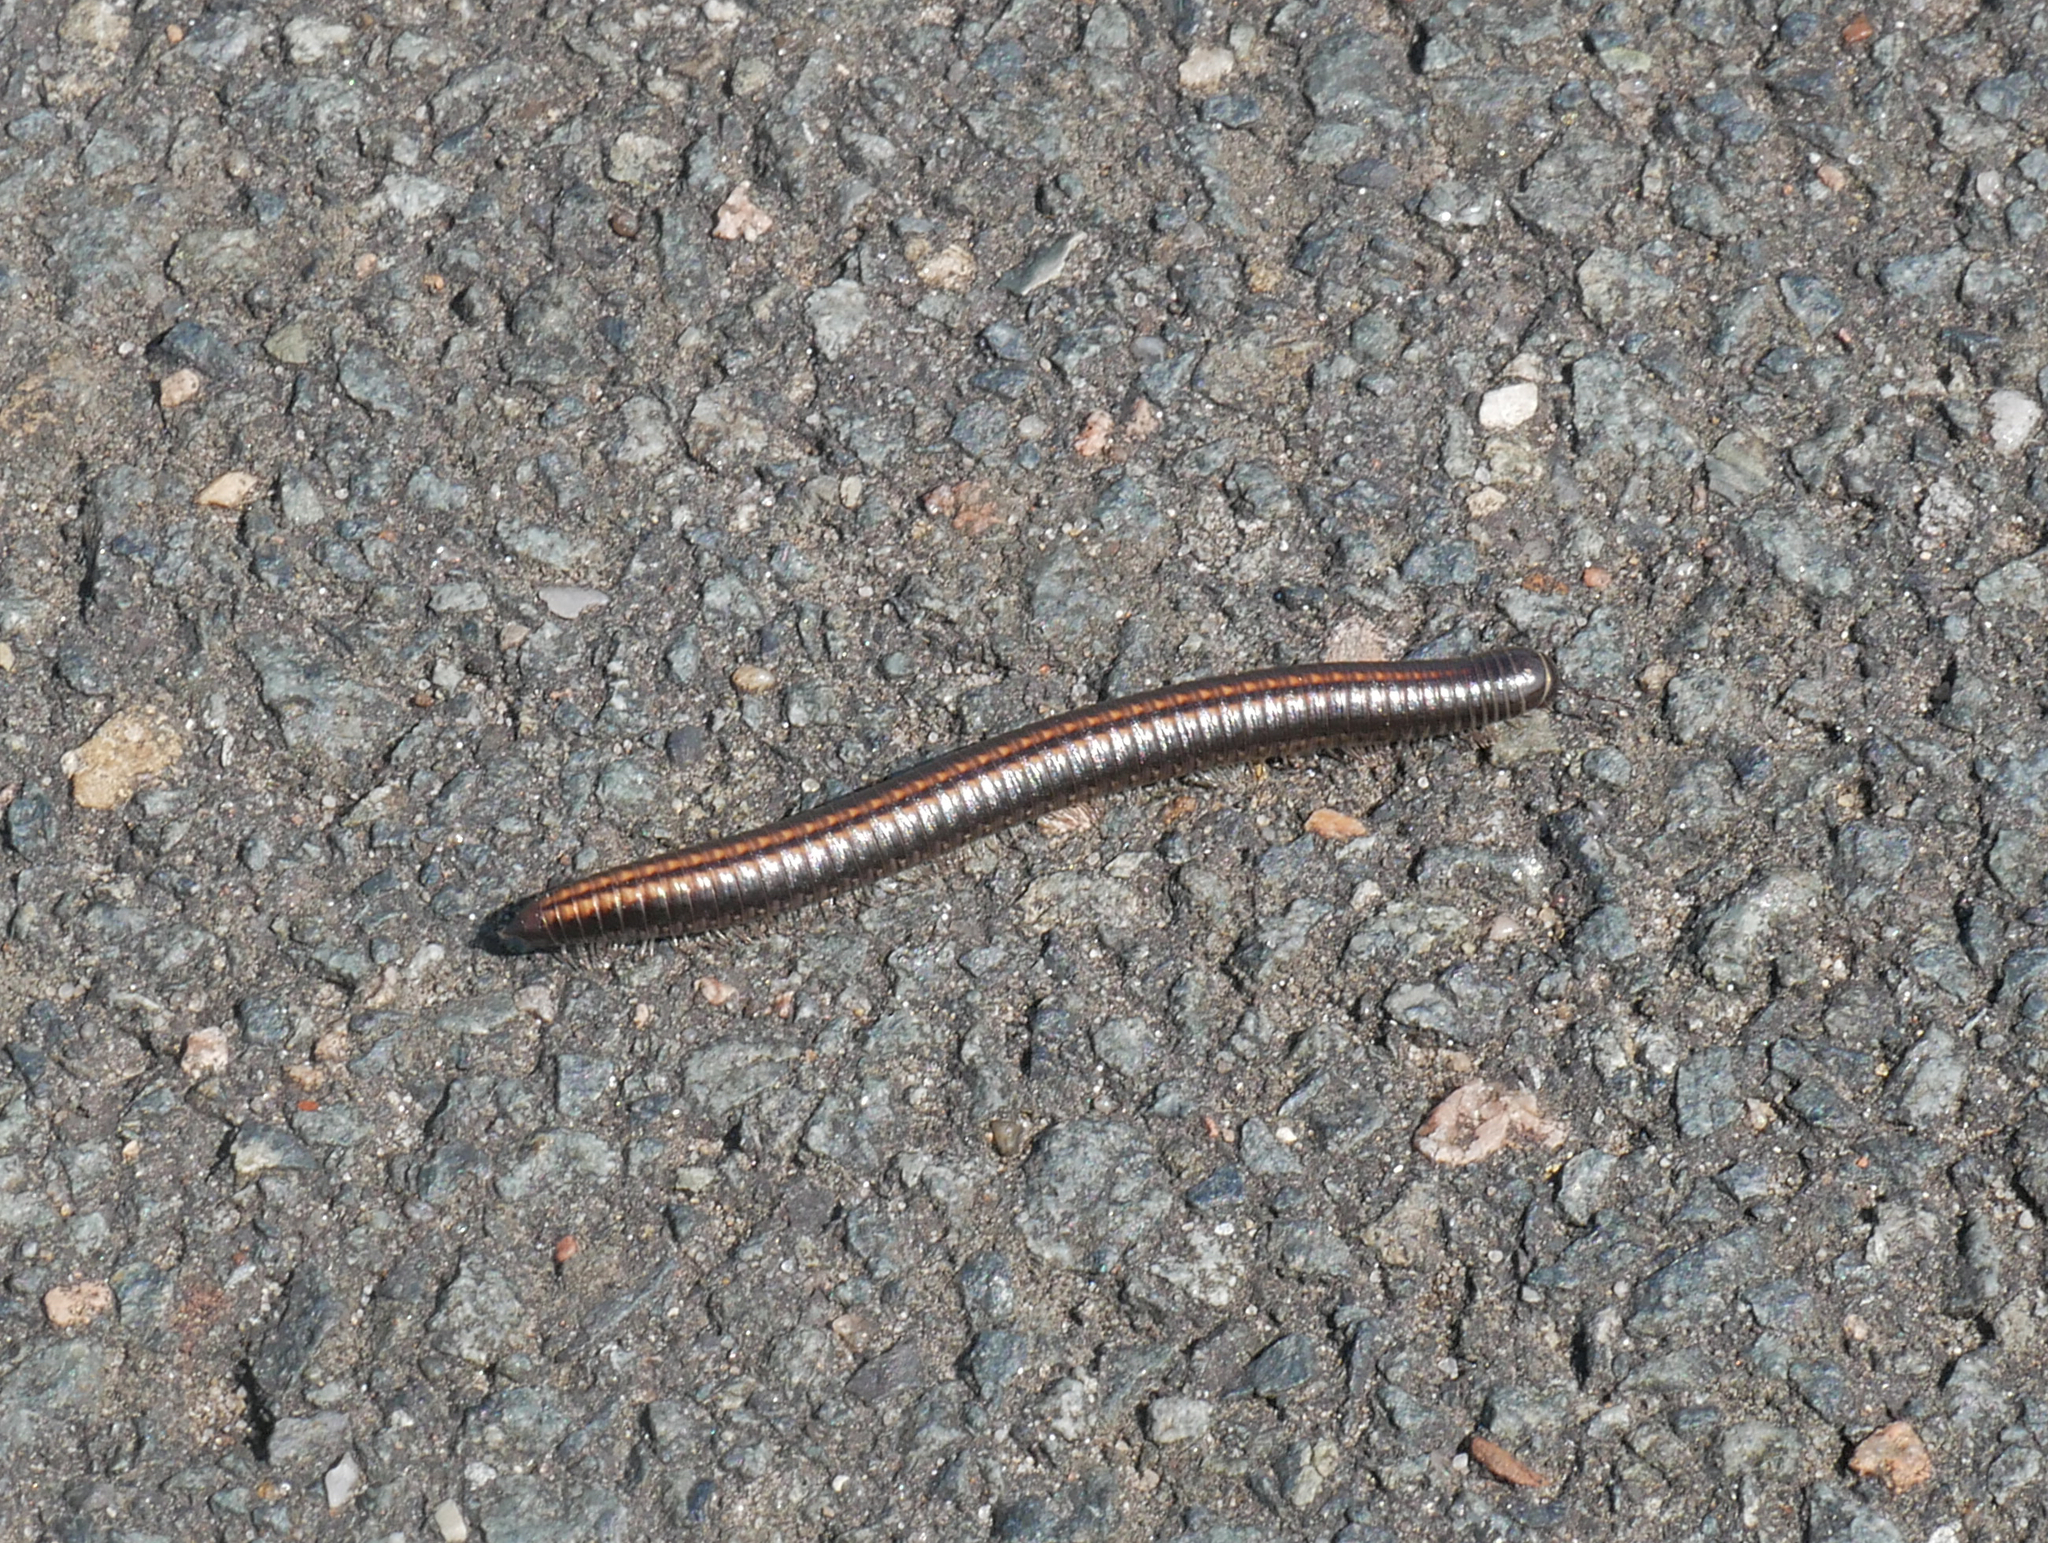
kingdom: Animalia
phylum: Arthropoda
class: Diplopoda
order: Julida
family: Julidae
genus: Ommatoiulus
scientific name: Ommatoiulus sabulosus
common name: Striped millipede
